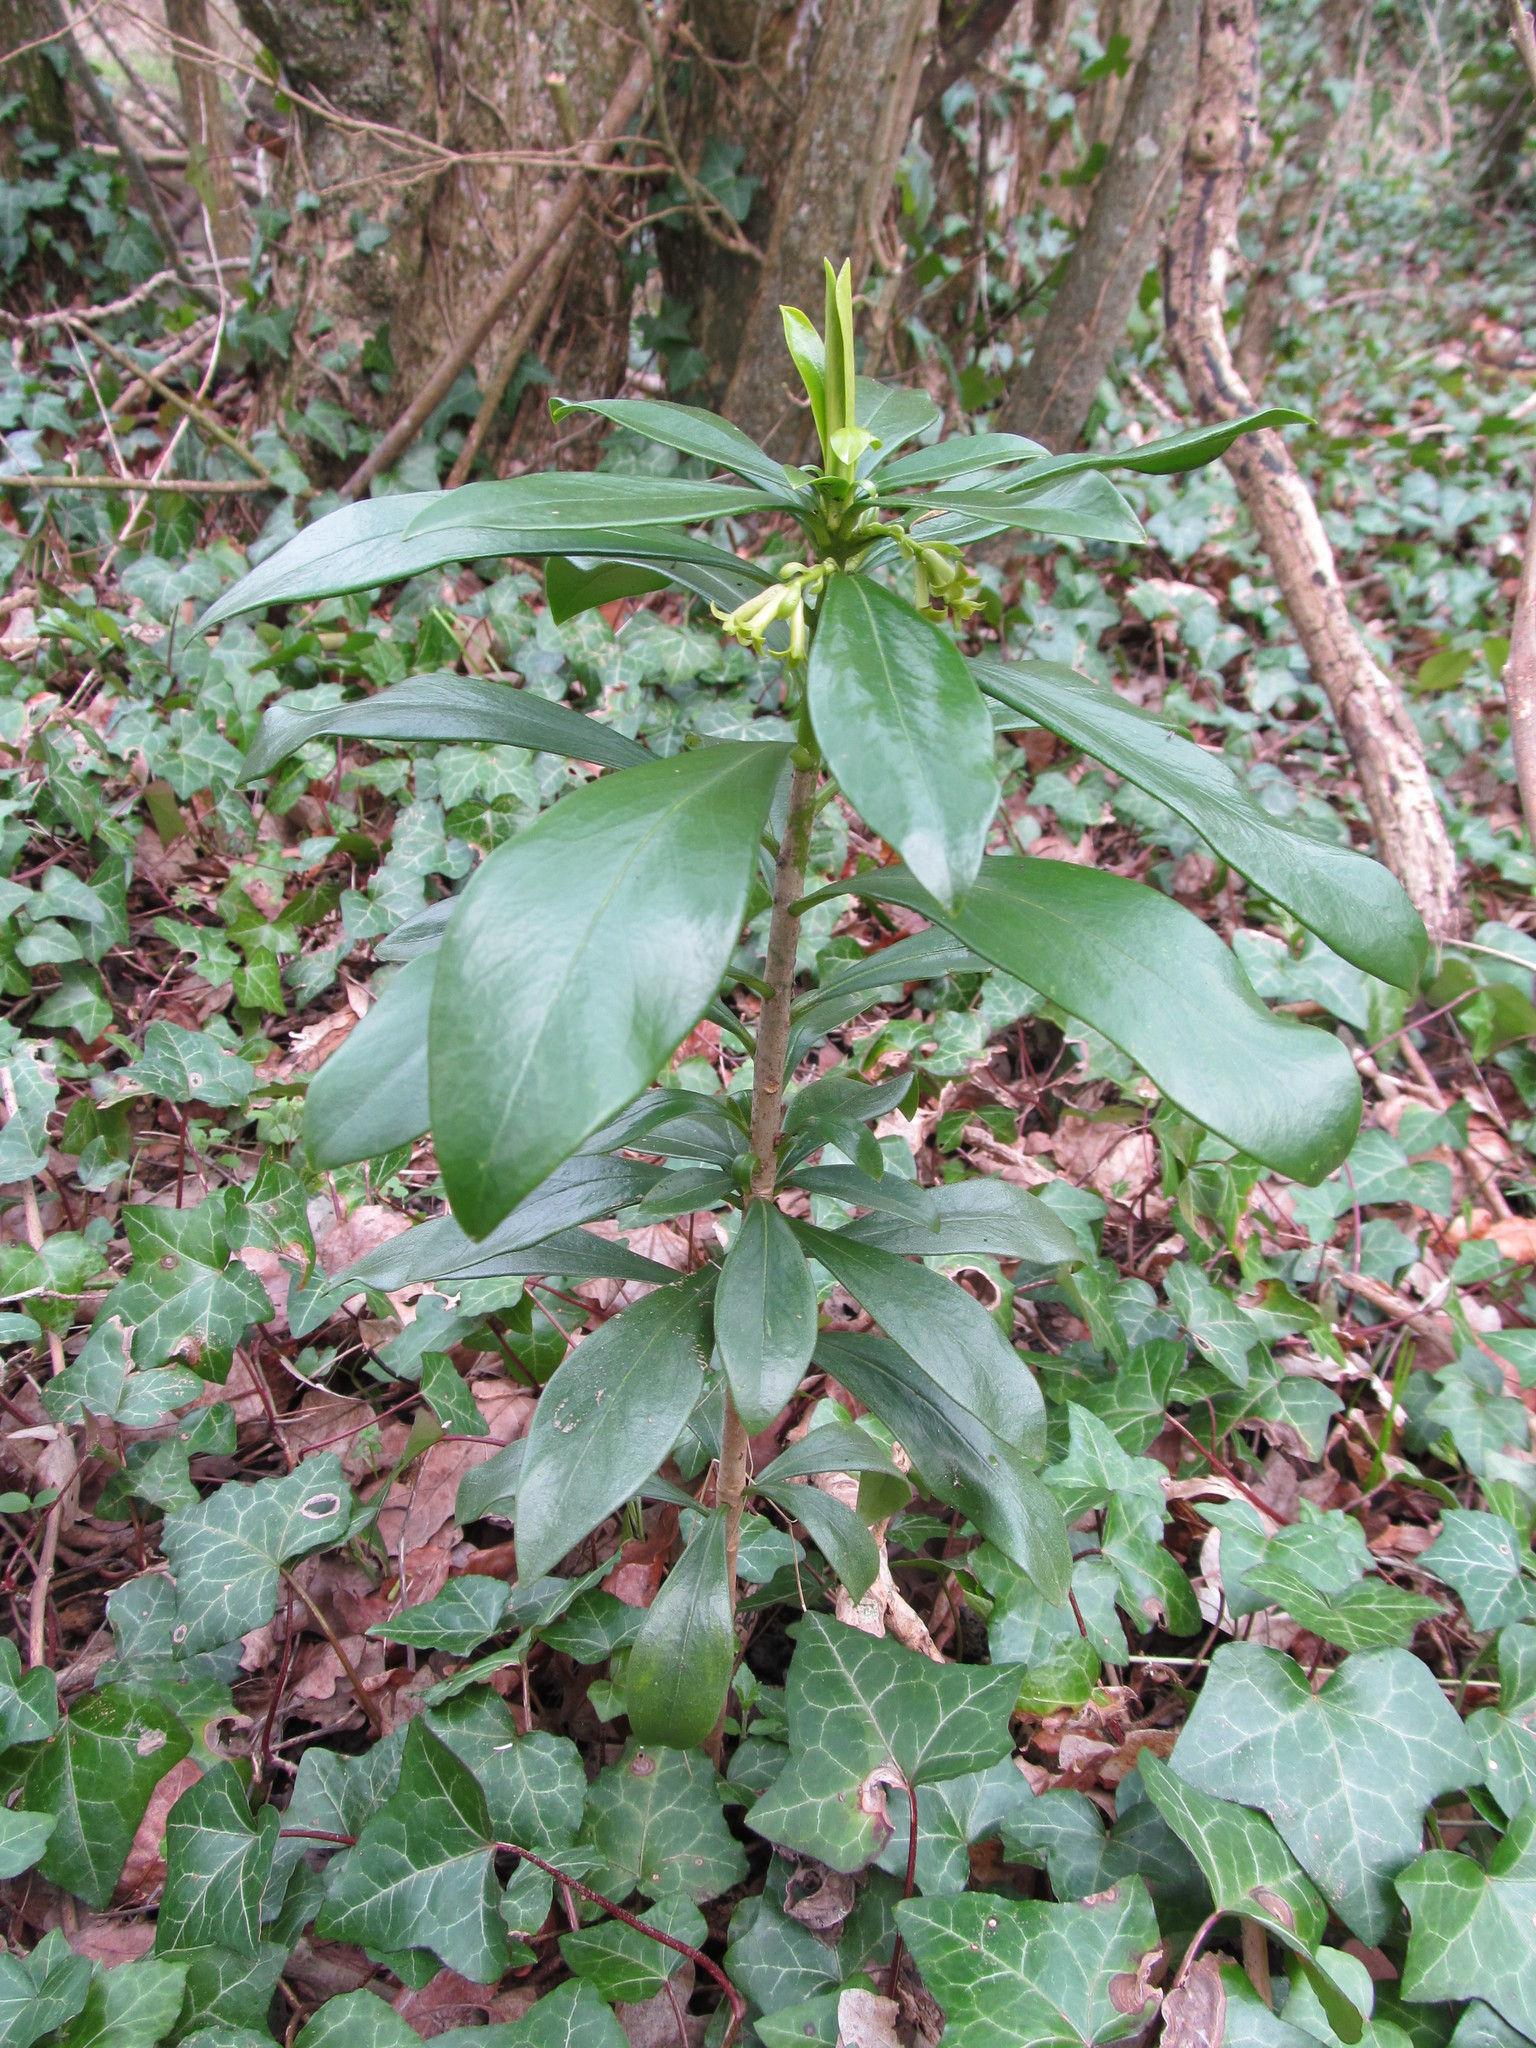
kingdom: Plantae
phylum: Tracheophyta
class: Magnoliopsida
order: Malvales
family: Thymelaeaceae
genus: Daphne
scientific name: Daphne laureola
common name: Spurge-laurel
